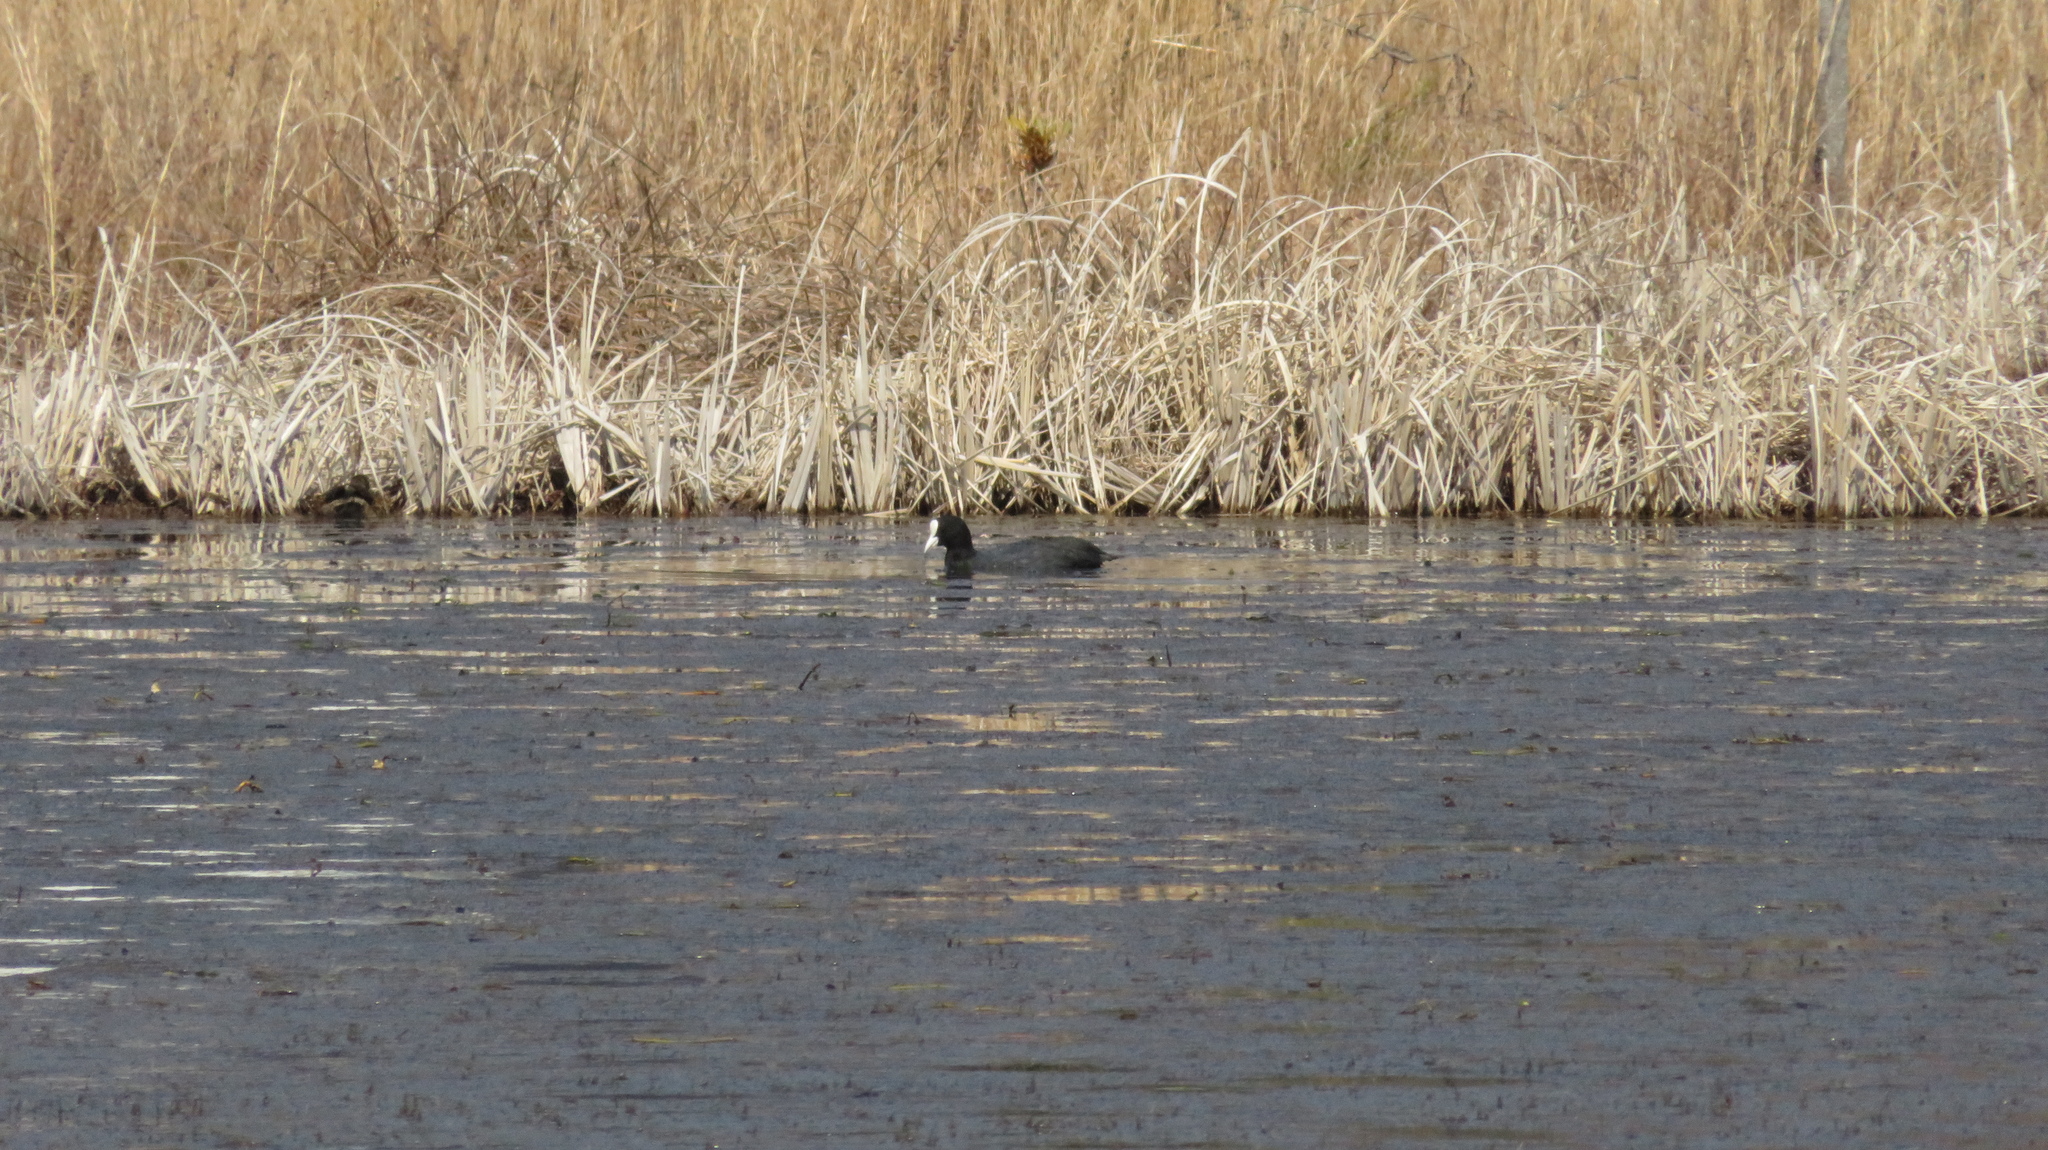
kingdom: Animalia
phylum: Chordata
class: Aves
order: Gruiformes
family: Rallidae
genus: Fulica
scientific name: Fulica atra
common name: Eurasian coot
